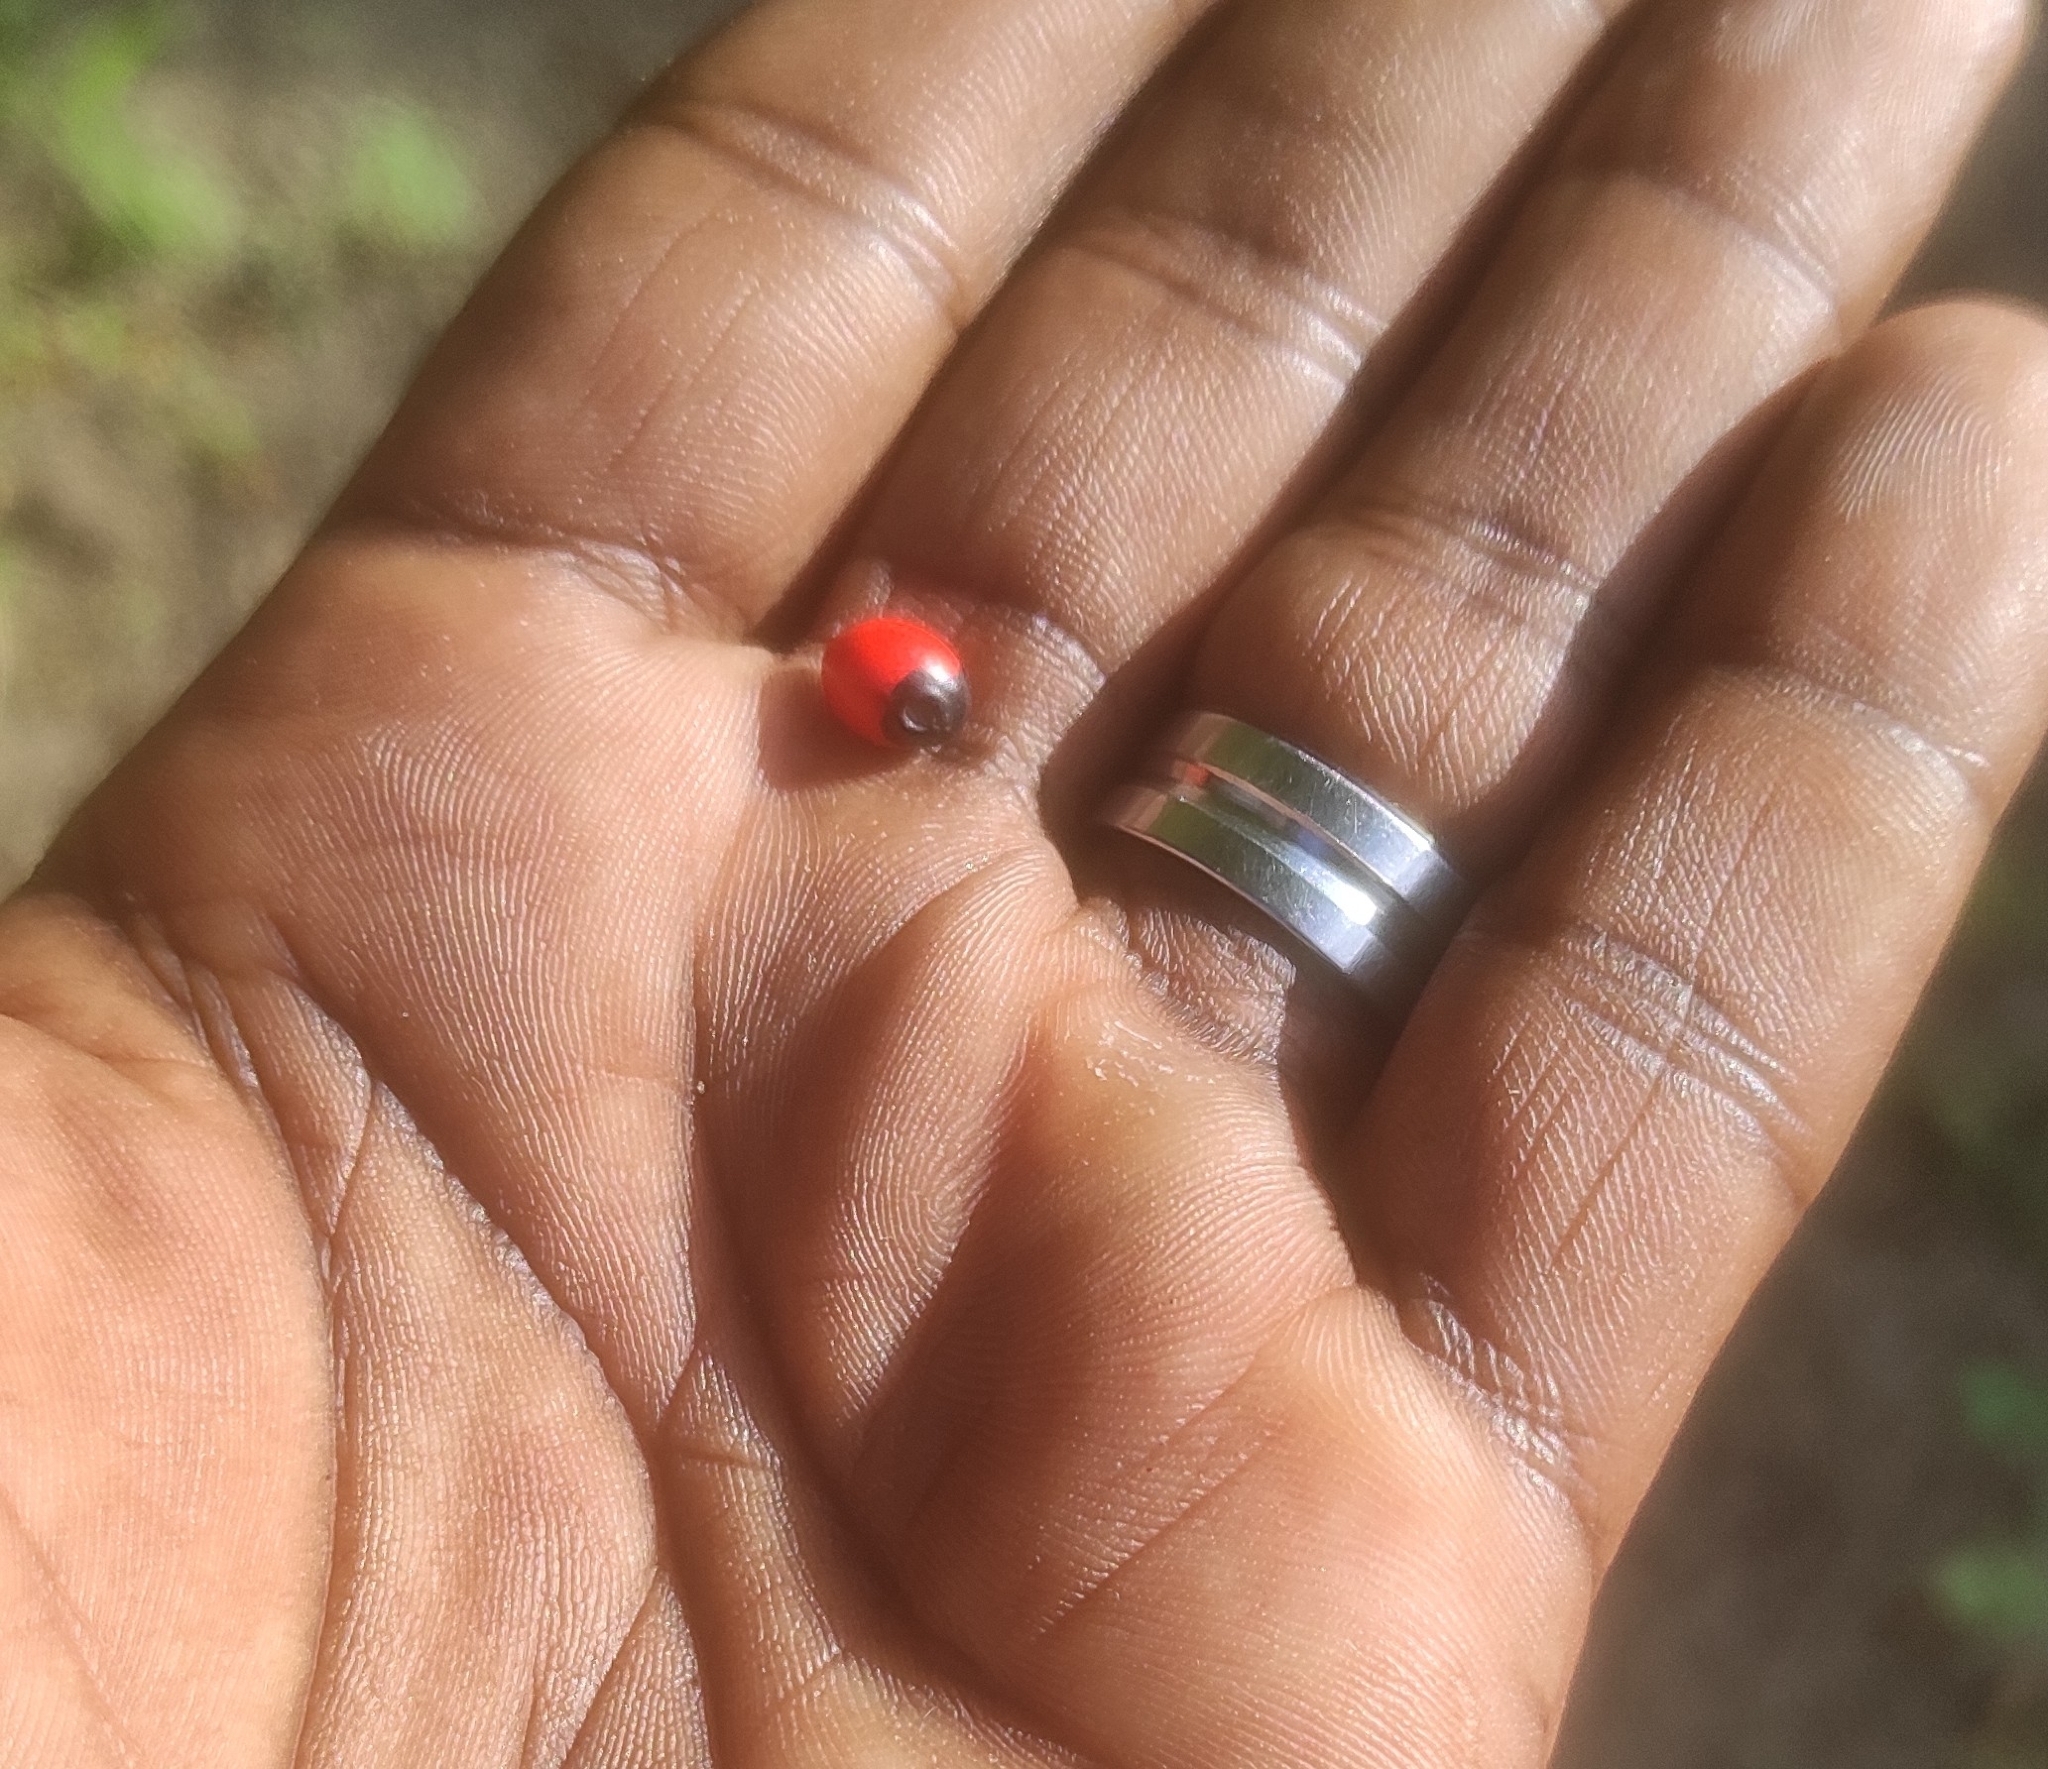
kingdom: Plantae
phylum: Tracheophyta
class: Magnoliopsida
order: Fabales
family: Fabaceae
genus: Abrus
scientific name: Abrus precatorius
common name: Rosarypea
